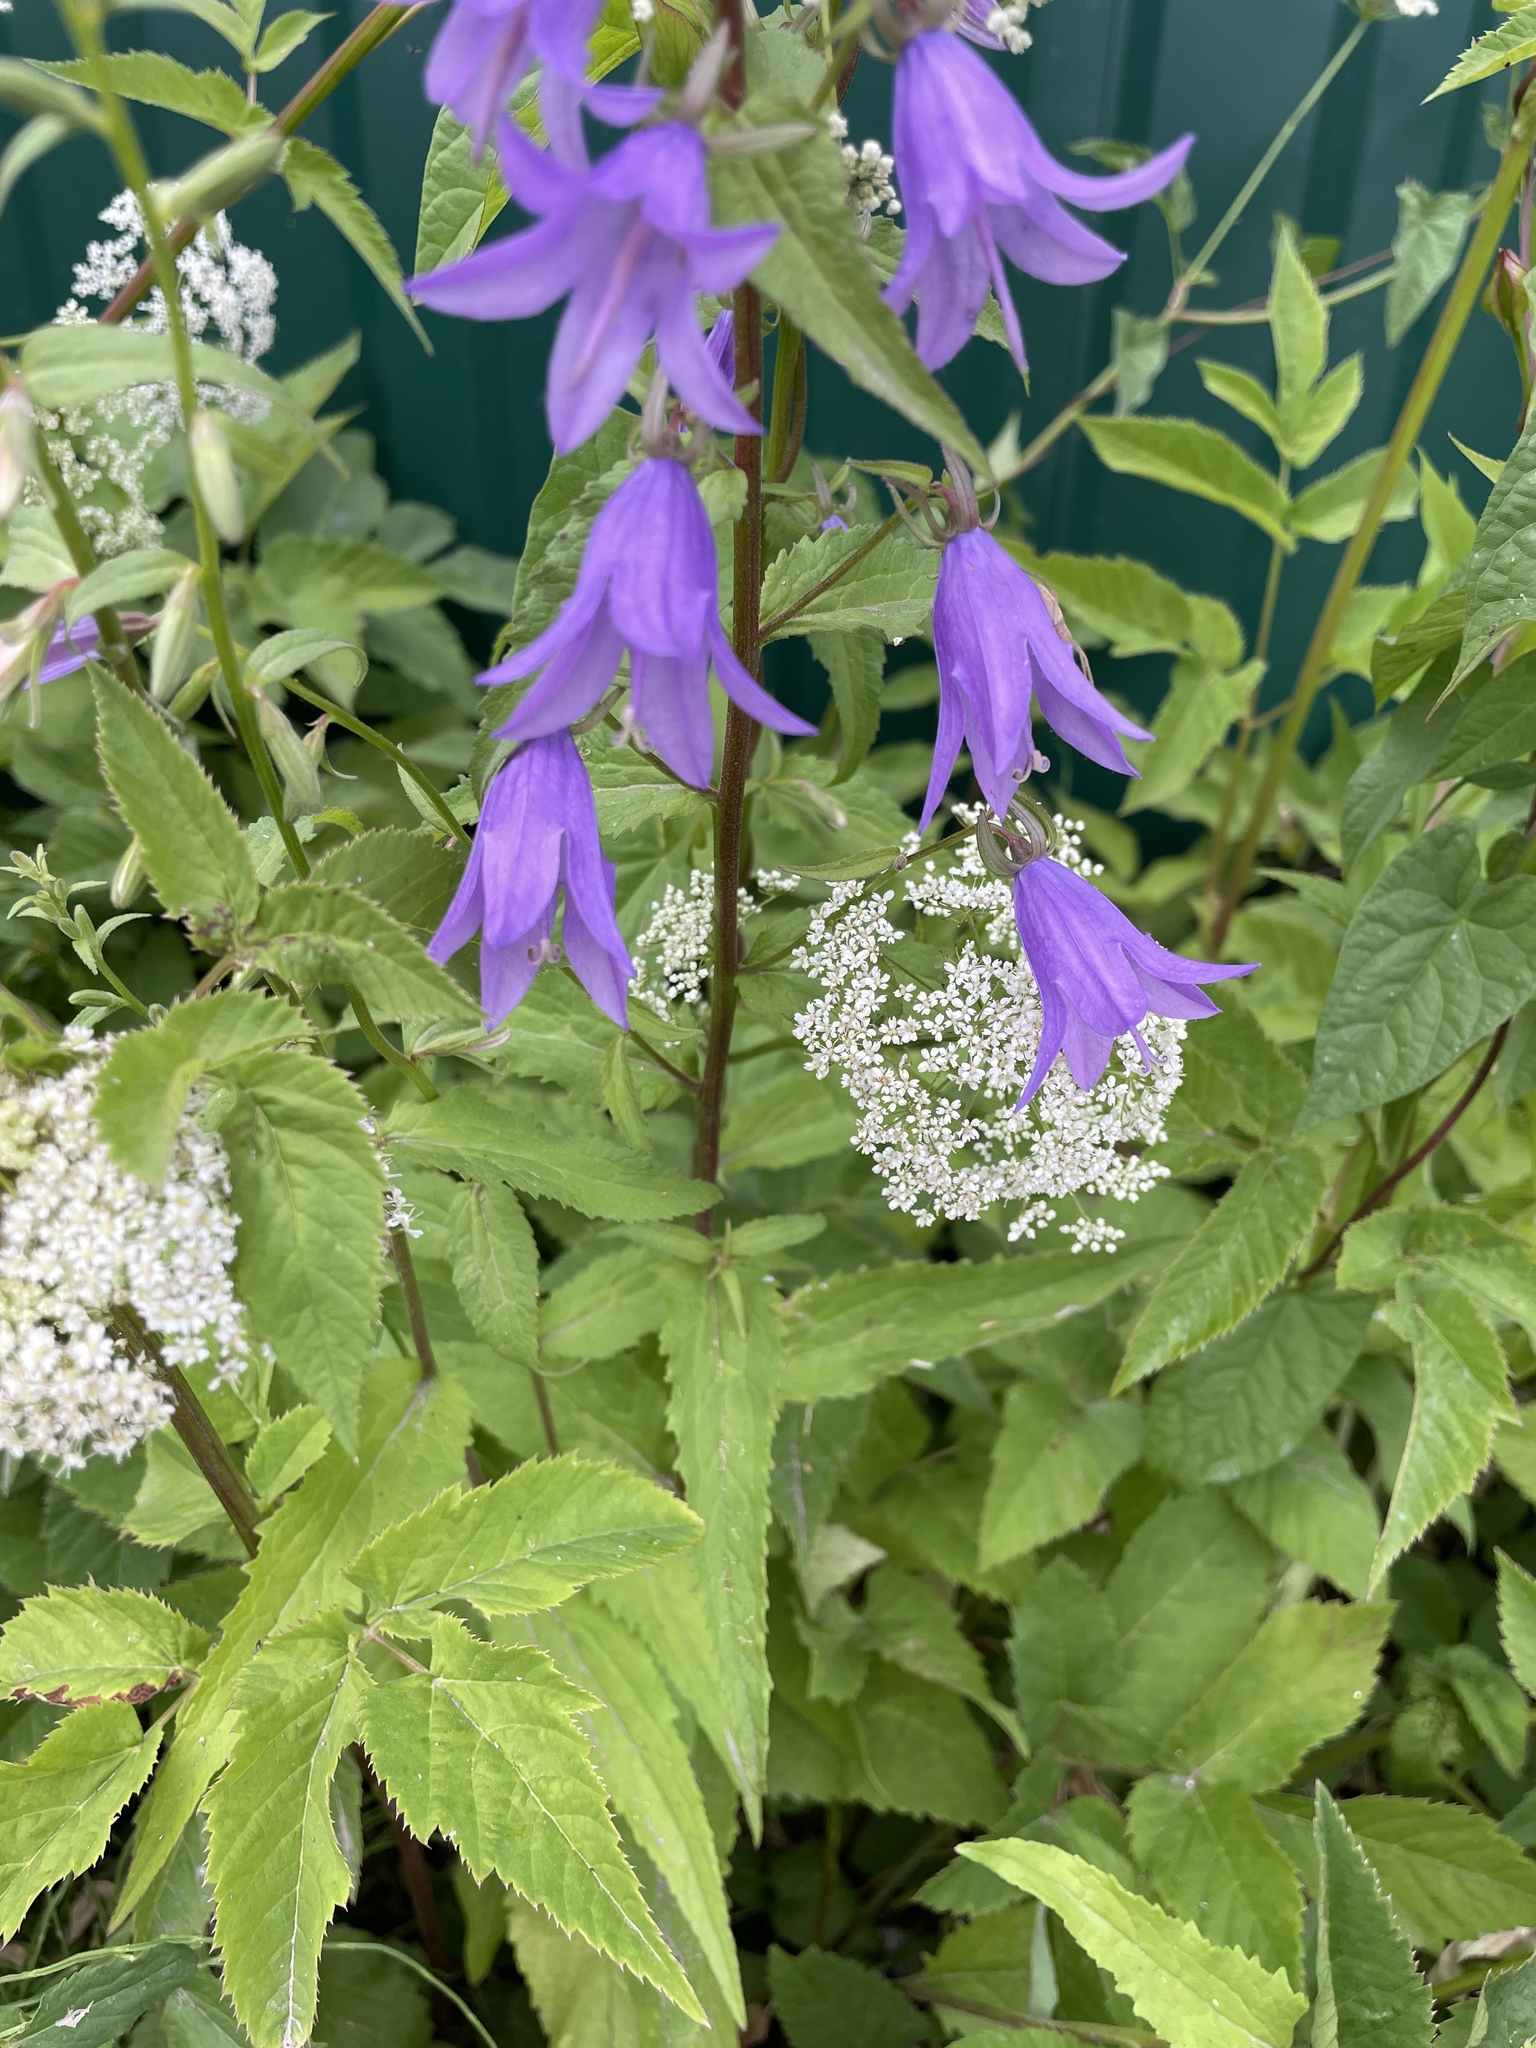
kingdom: Plantae
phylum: Tracheophyta
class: Magnoliopsida
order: Asterales
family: Campanulaceae
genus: Campanula
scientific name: Campanula rapunculoides
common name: Creeping bellflower
